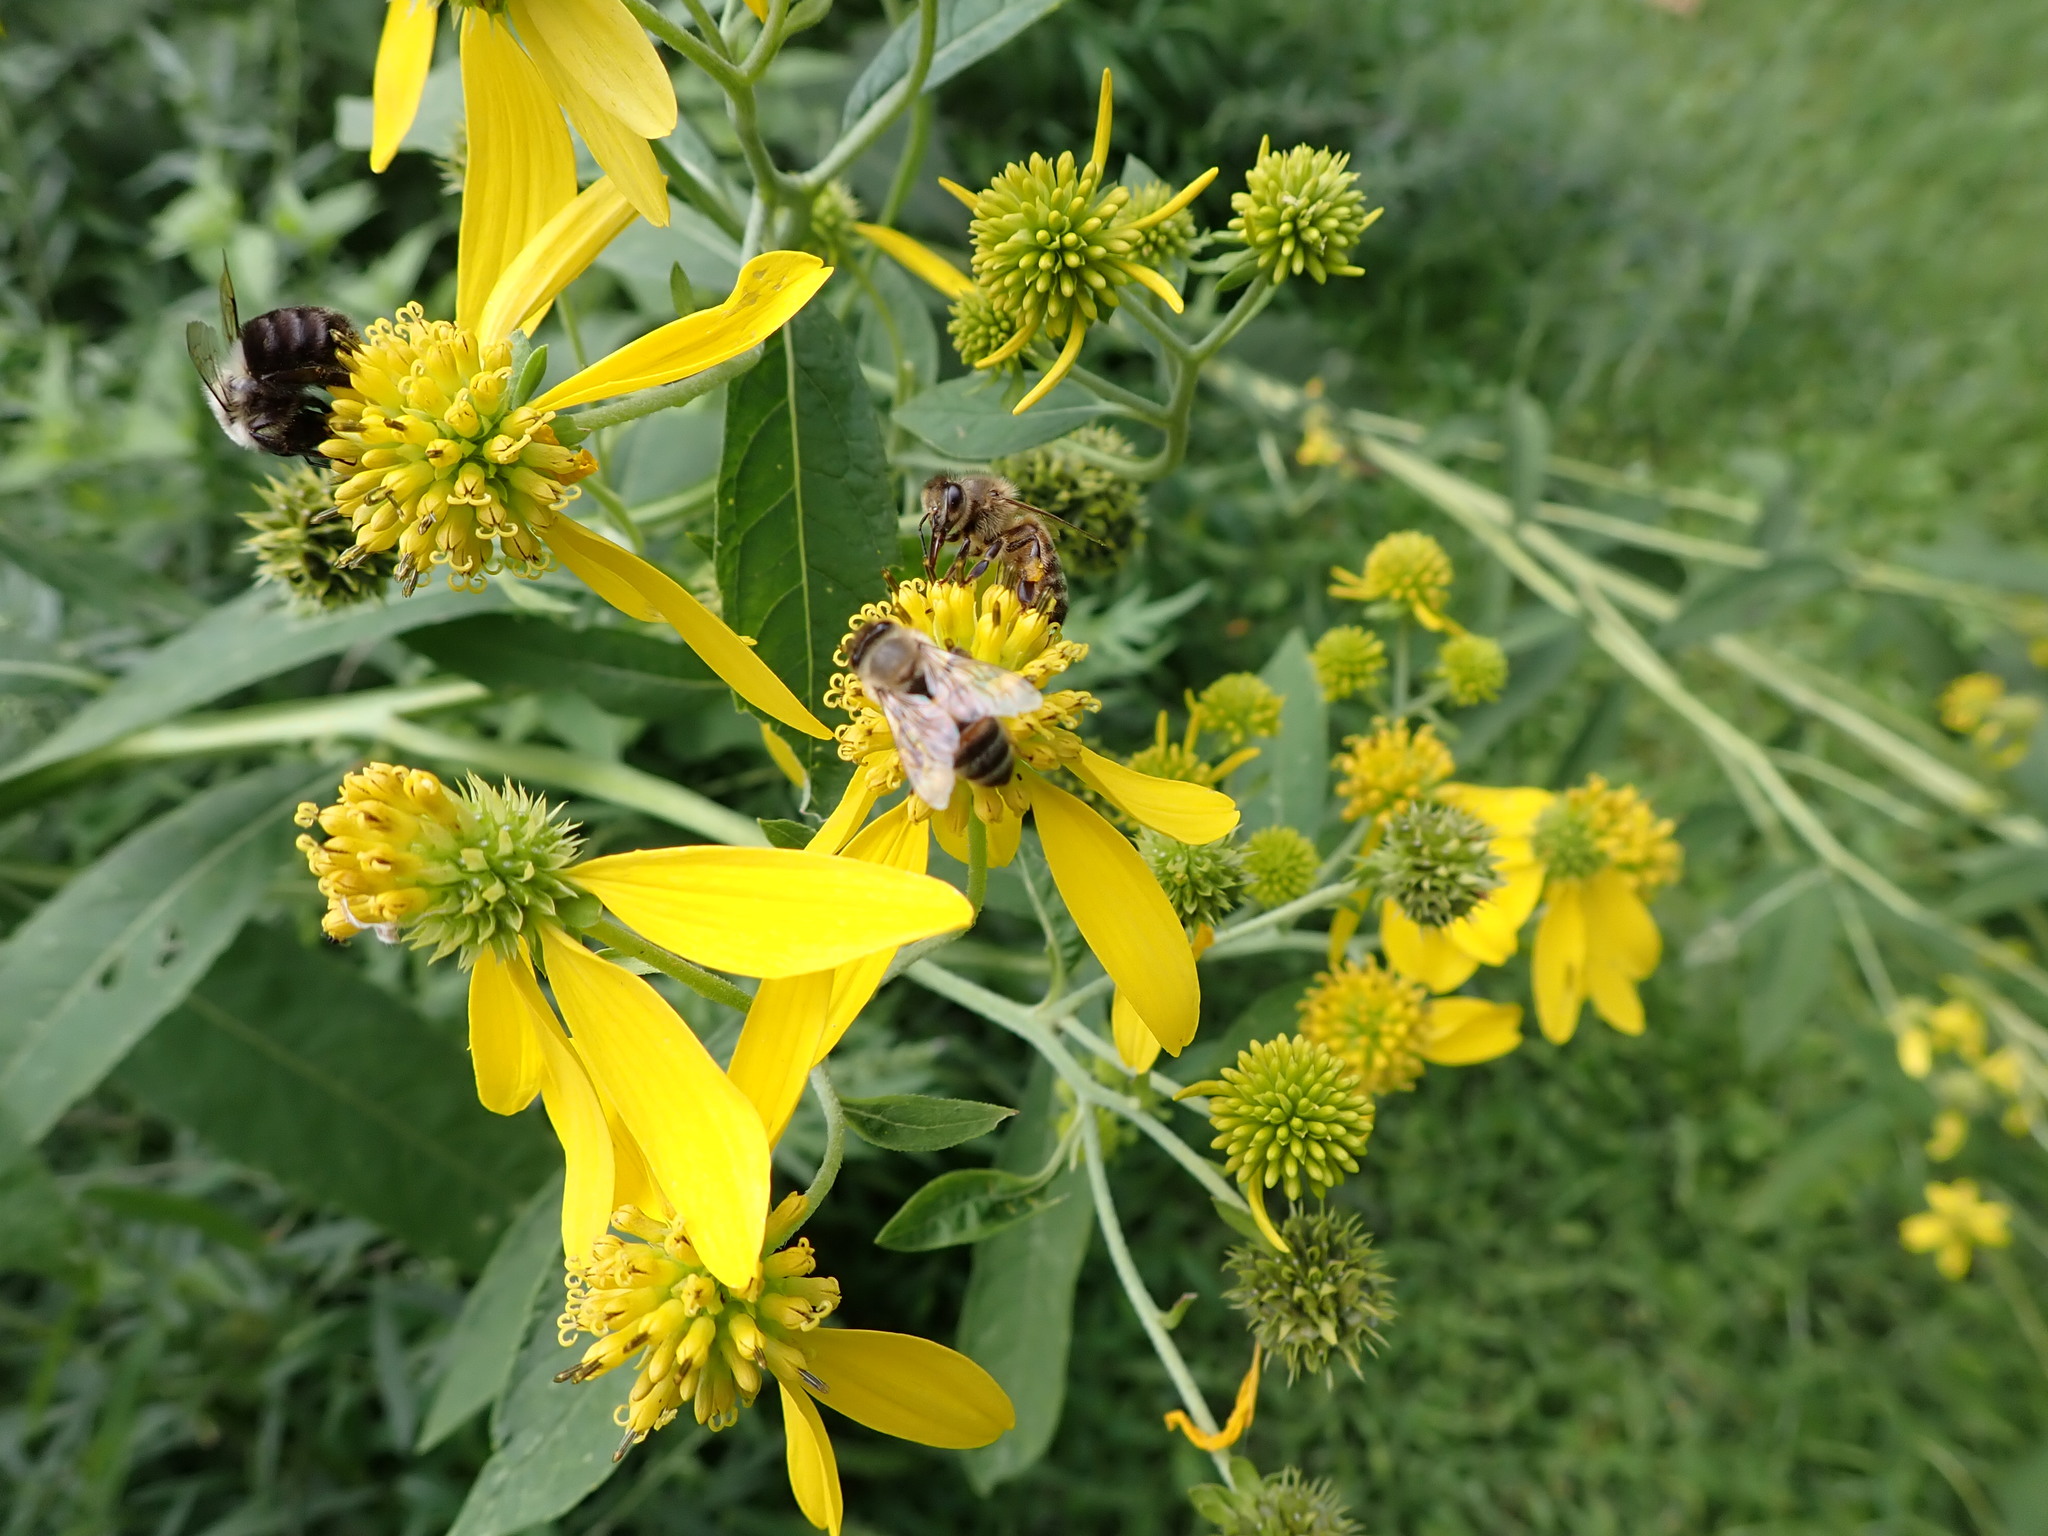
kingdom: Animalia
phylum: Arthropoda
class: Insecta
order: Hymenoptera
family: Apidae
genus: Apis
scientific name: Apis mellifera
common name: Honey bee
